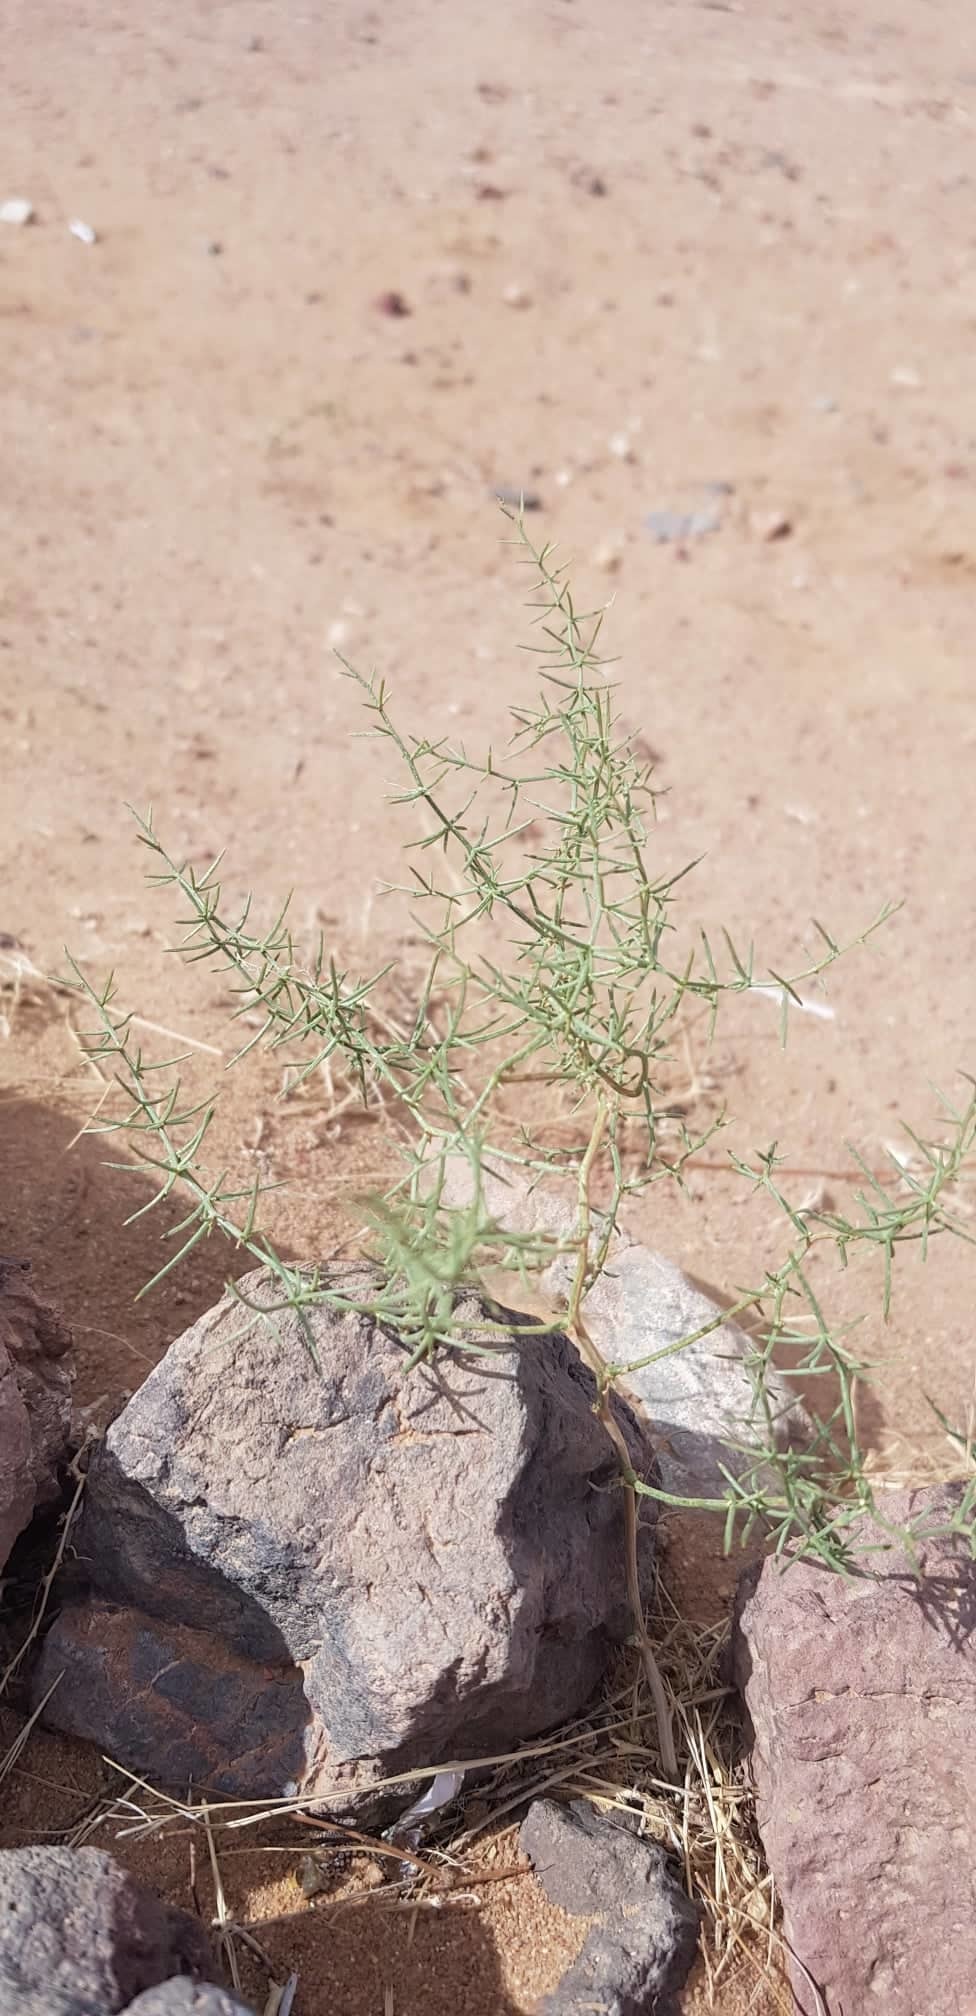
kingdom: Plantae
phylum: Tracheophyta
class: Liliopsida
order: Asparagales
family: Asparagaceae
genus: Asparagus
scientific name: Asparagus gobicus
